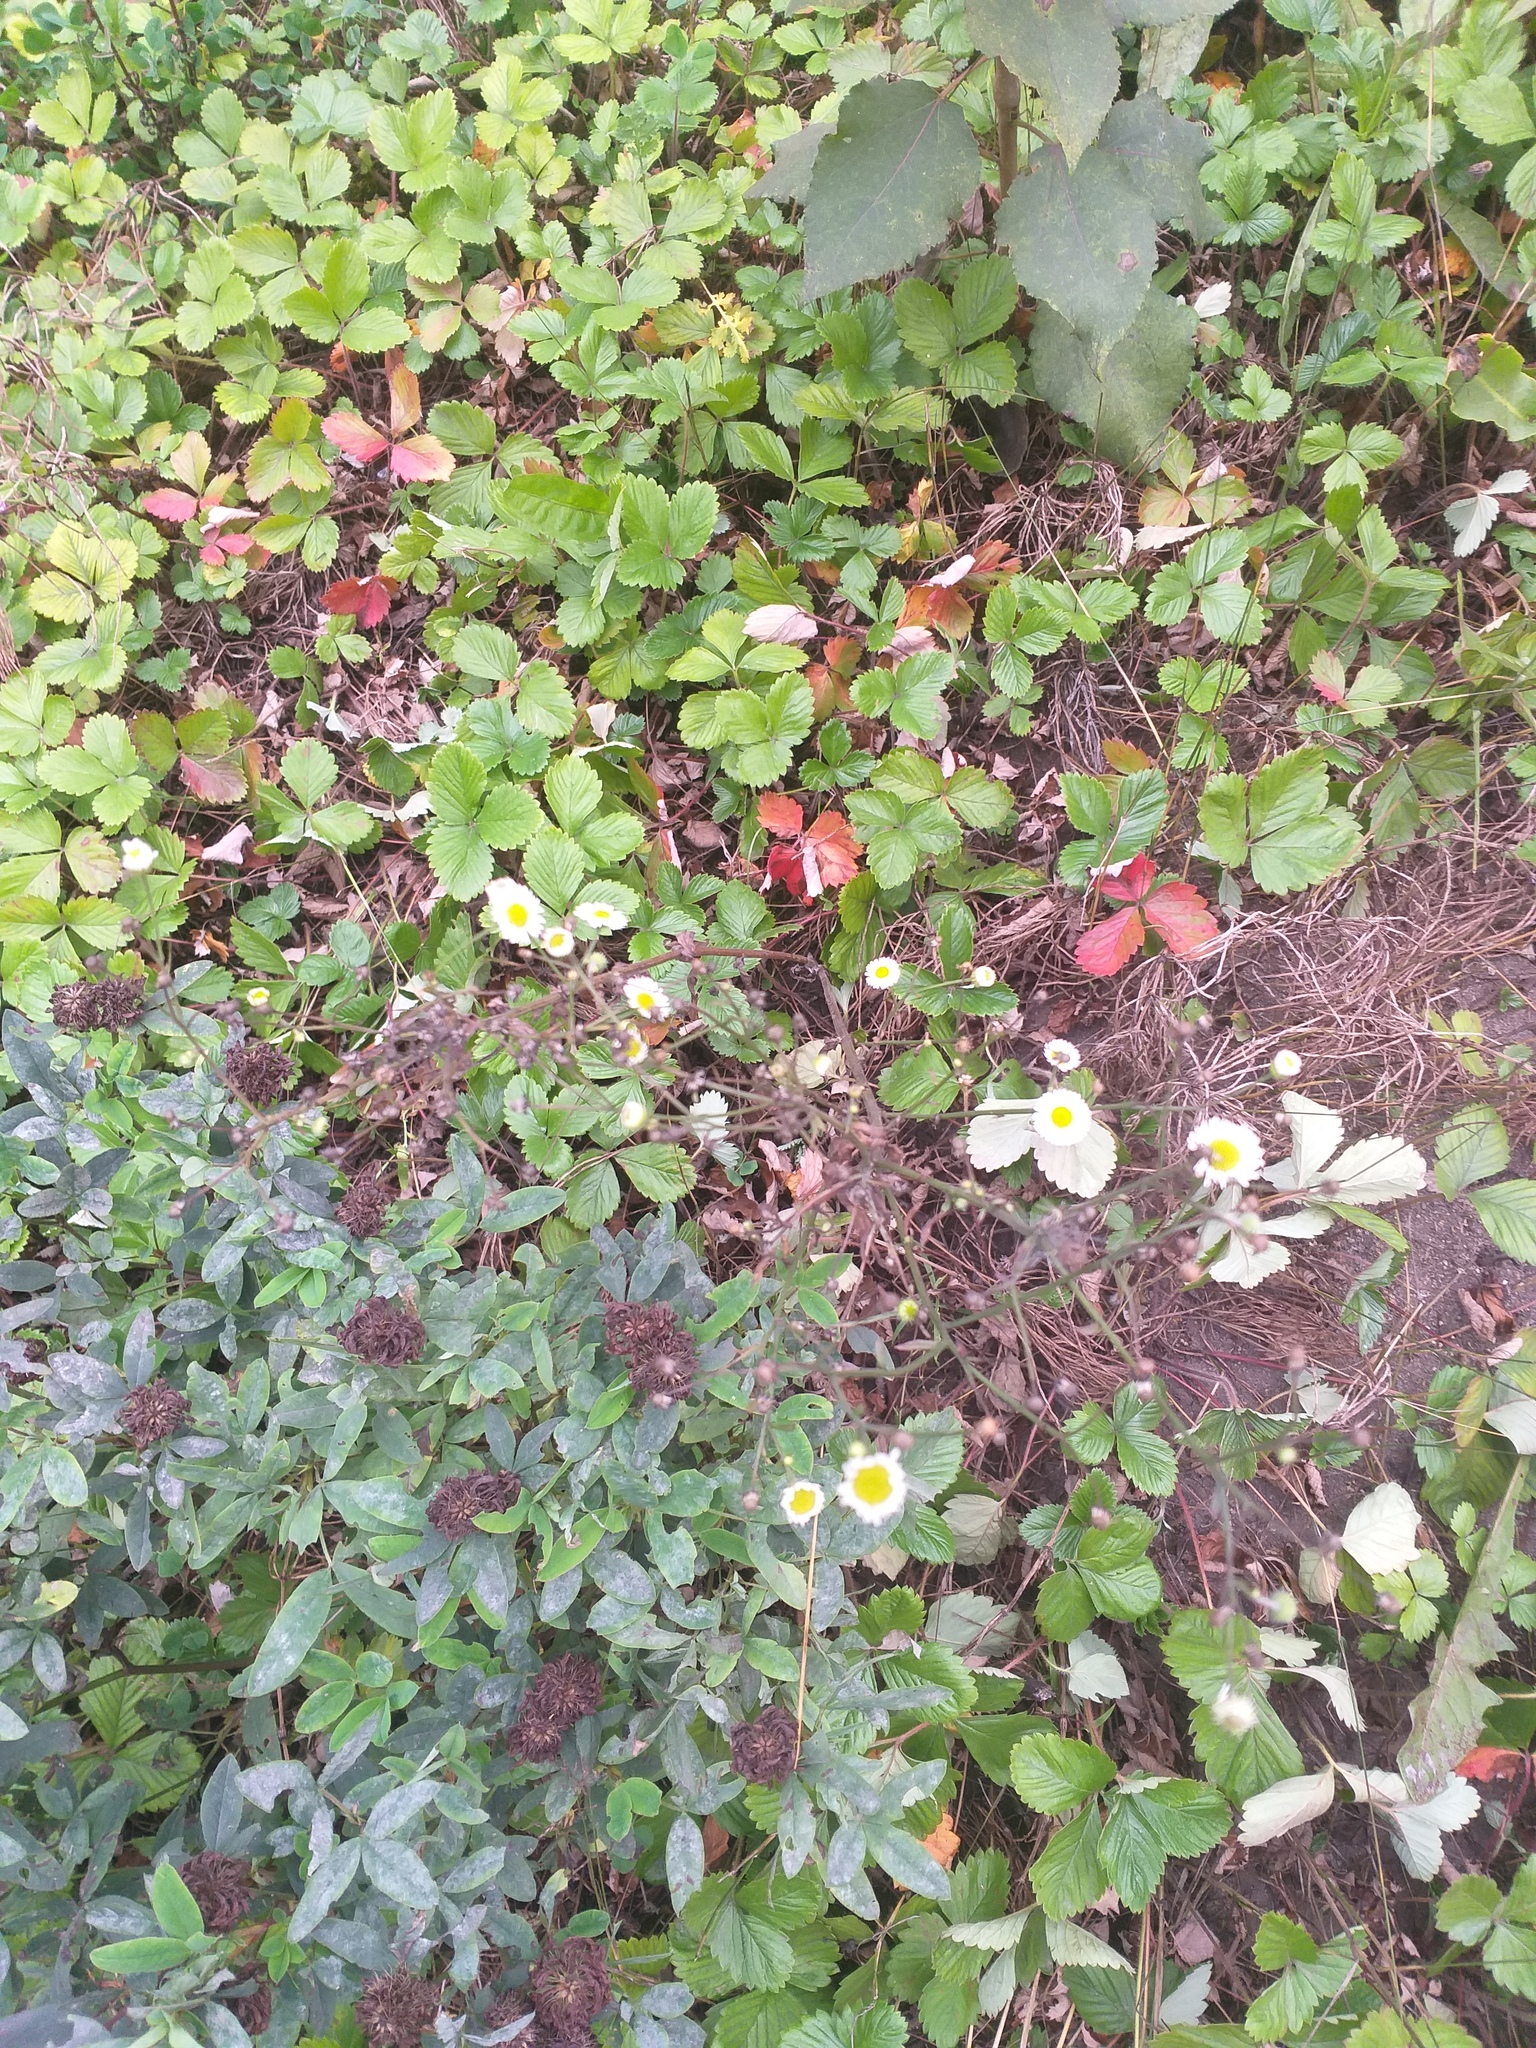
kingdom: Plantae
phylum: Tracheophyta
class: Magnoliopsida
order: Asterales
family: Asteraceae
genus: Erigeron
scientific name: Erigeron annuus
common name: Tall fleabane
